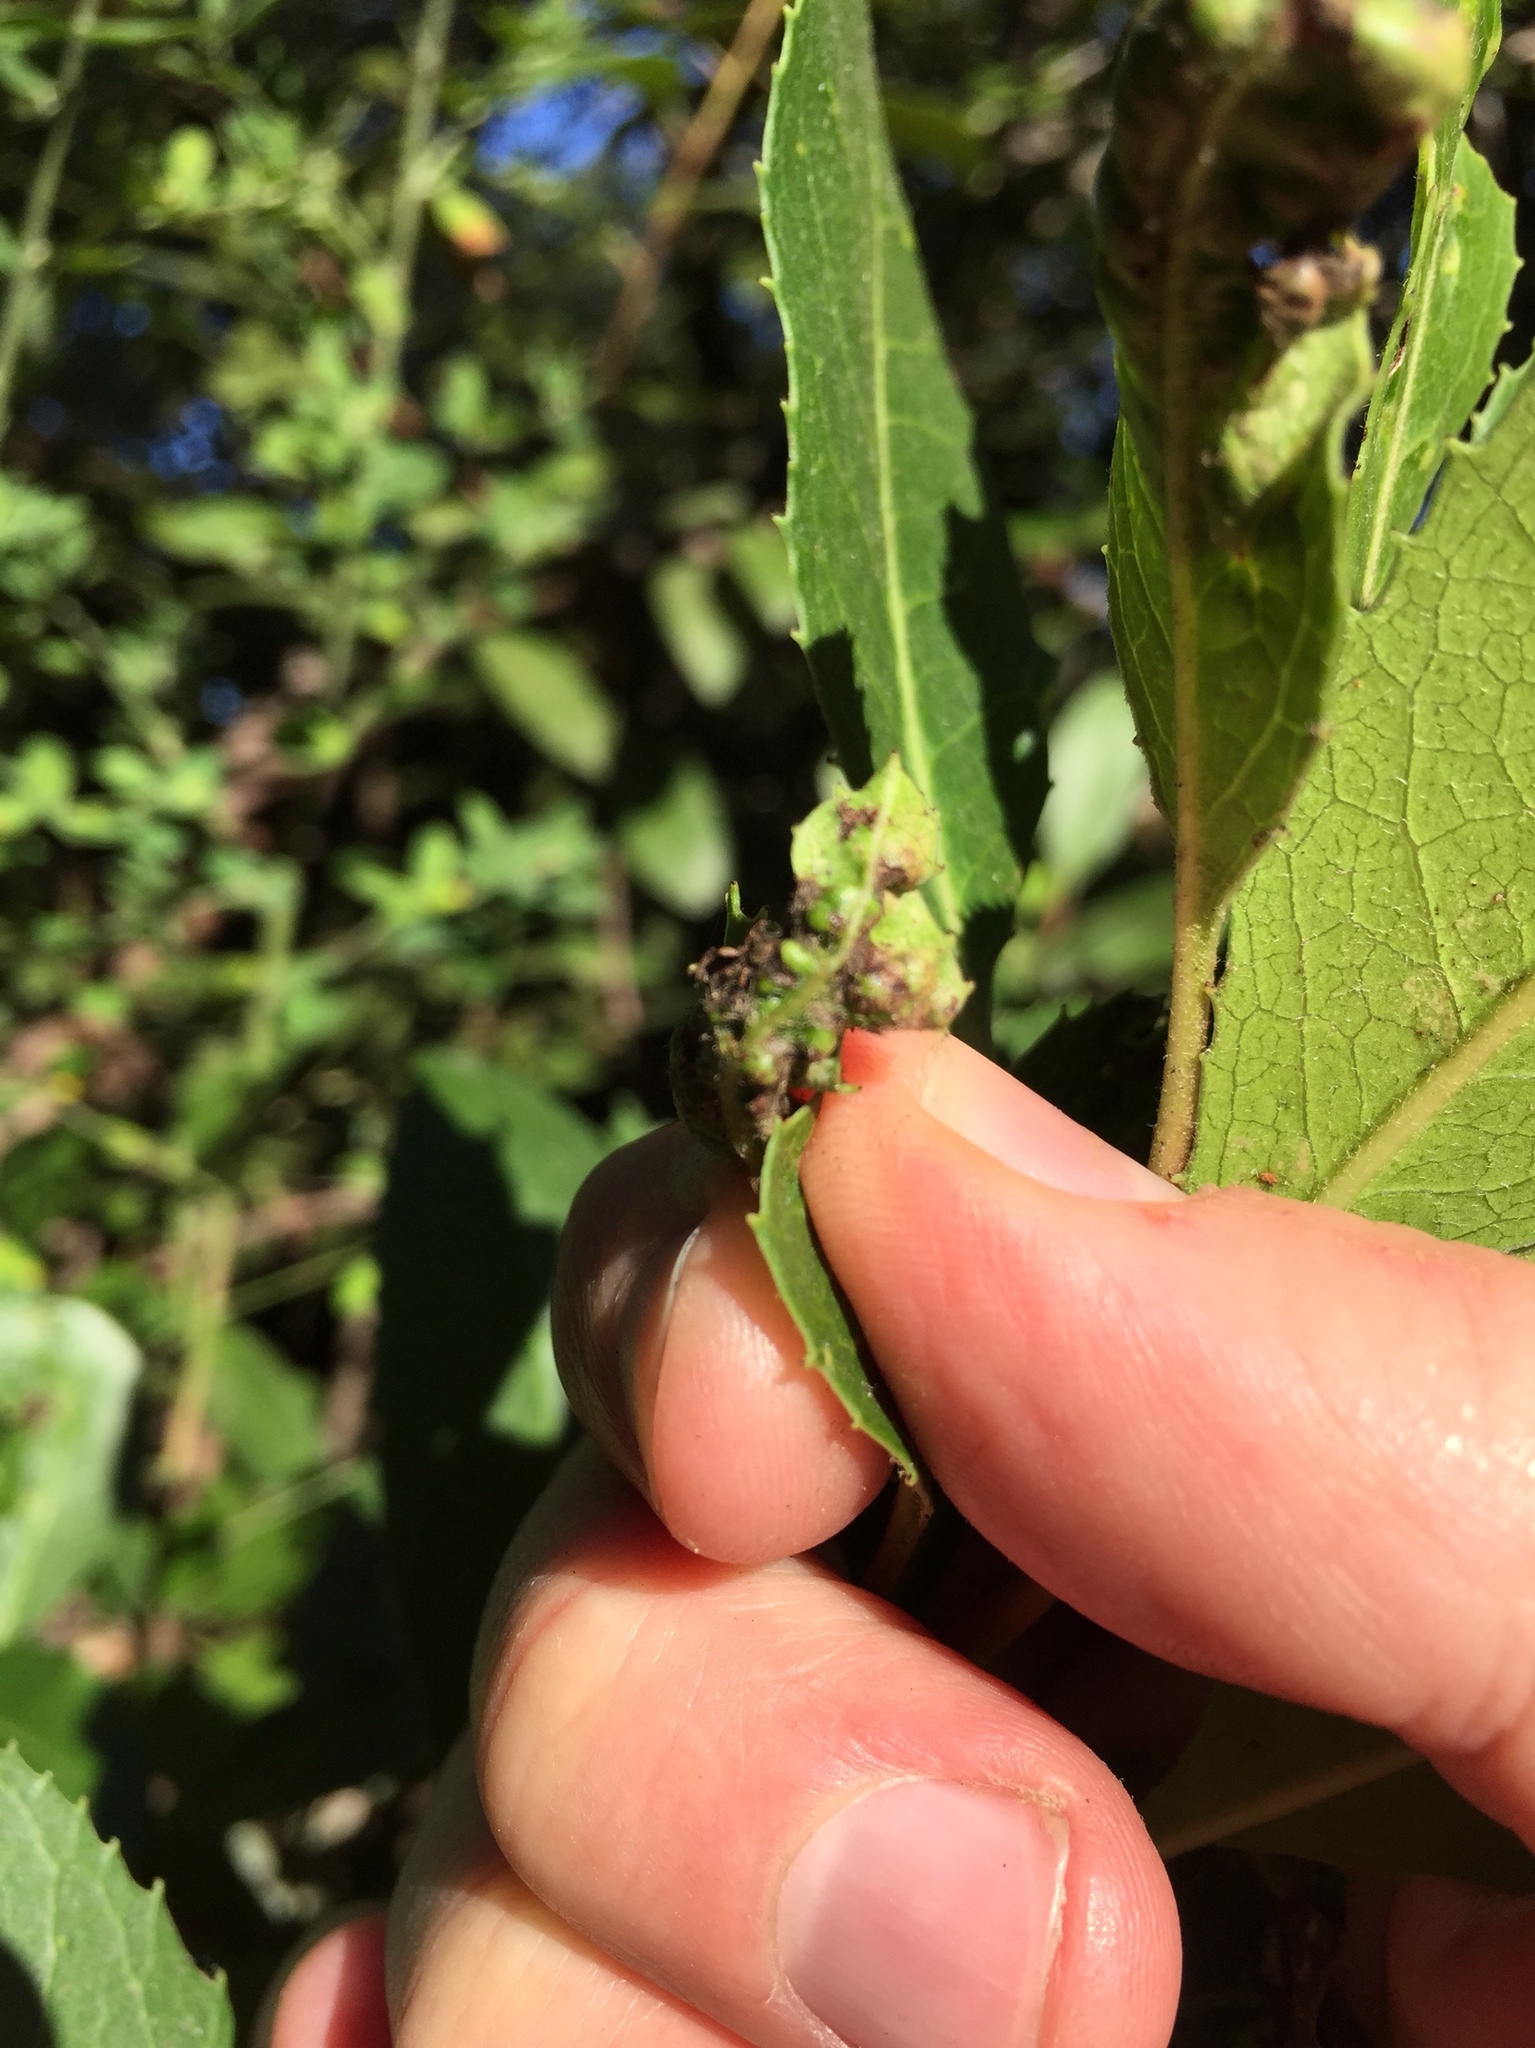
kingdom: Animalia
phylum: Arthropoda
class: Insecta
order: Thysanoptera
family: Phlaeothripidae
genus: Liothrips
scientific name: Liothrips ilex
